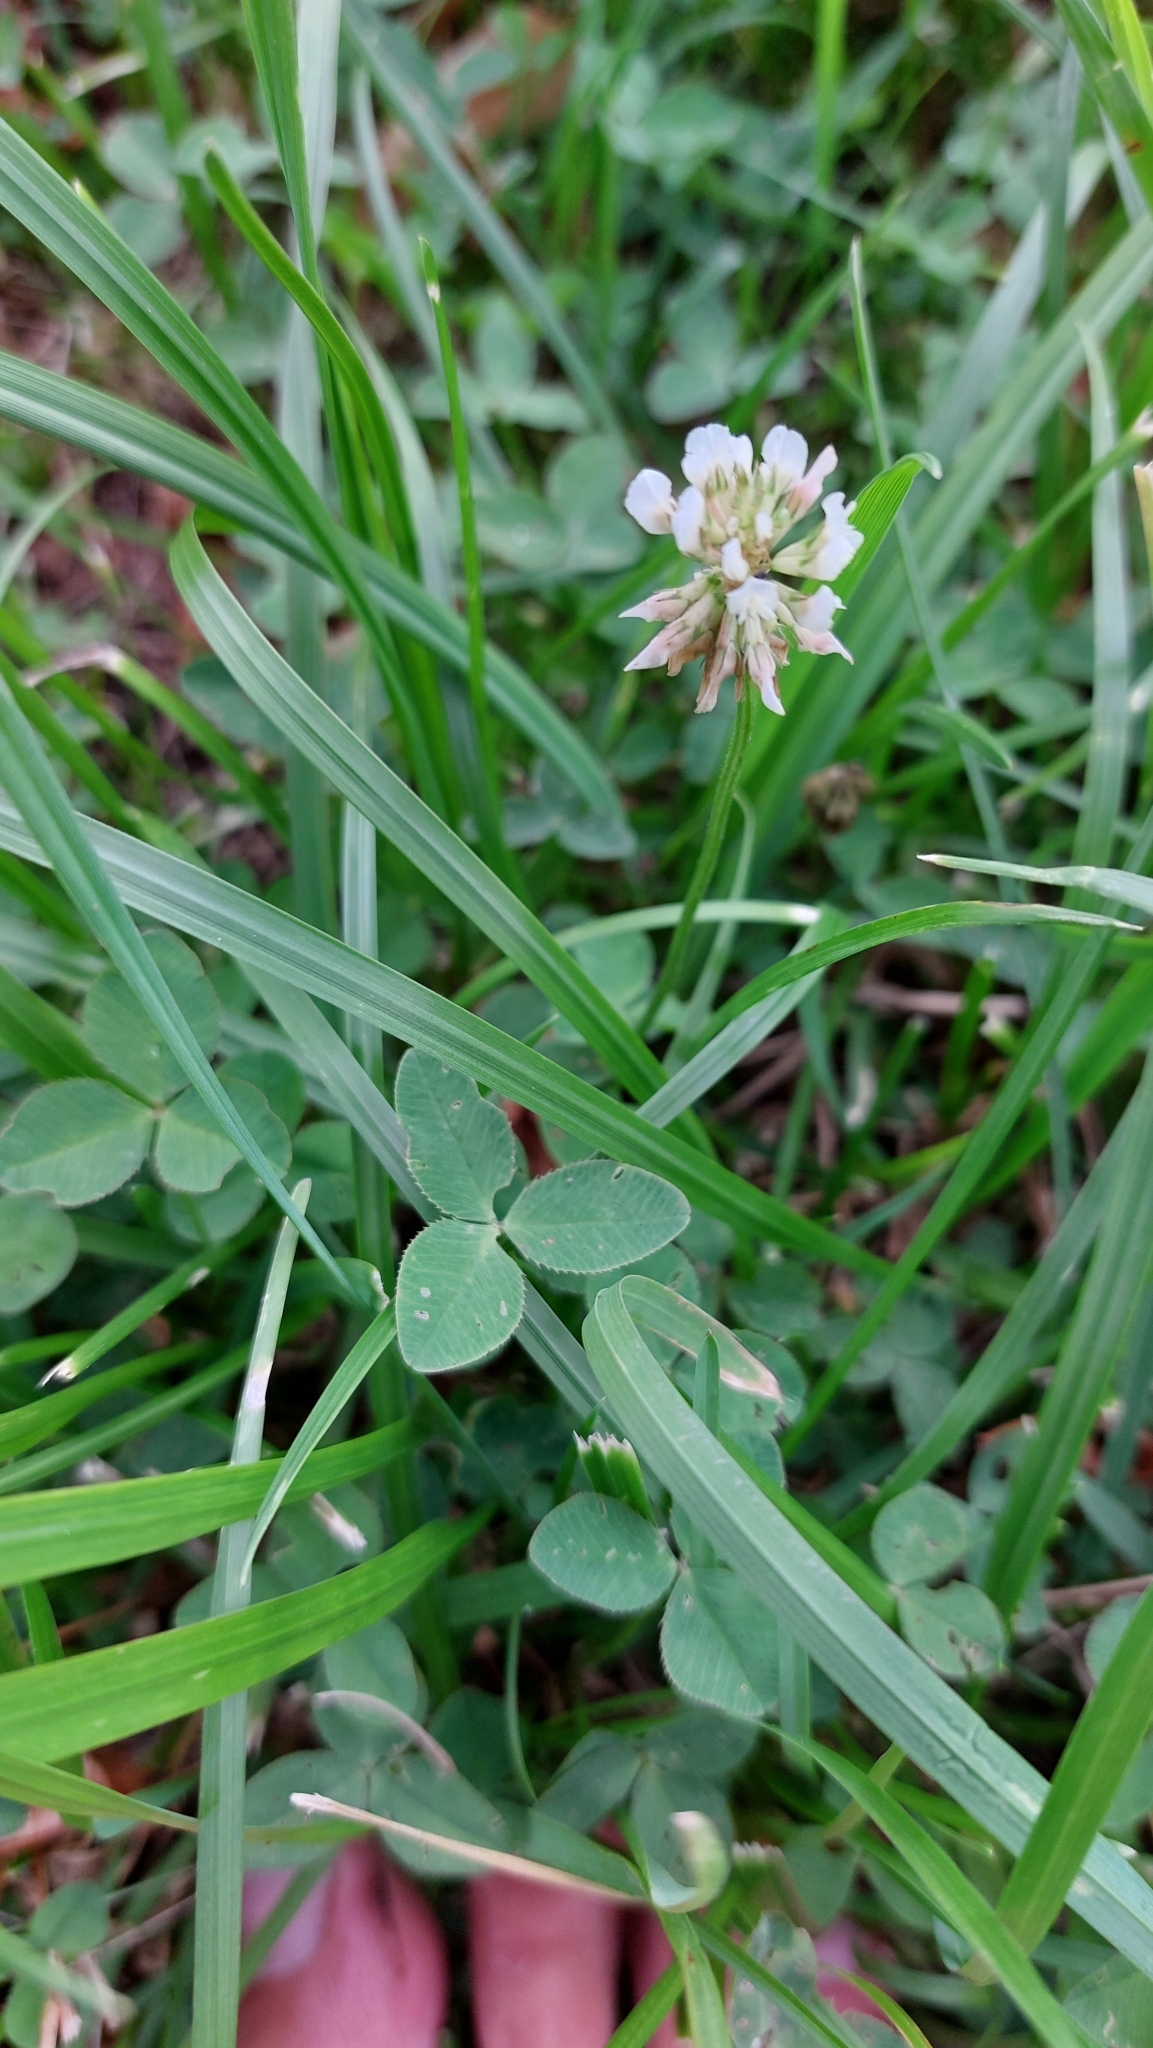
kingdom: Plantae
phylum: Tracheophyta
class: Magnoliopsida
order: Fabales
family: Fabaceae
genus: Trifolium
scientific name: Trifolium repens
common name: White clover
